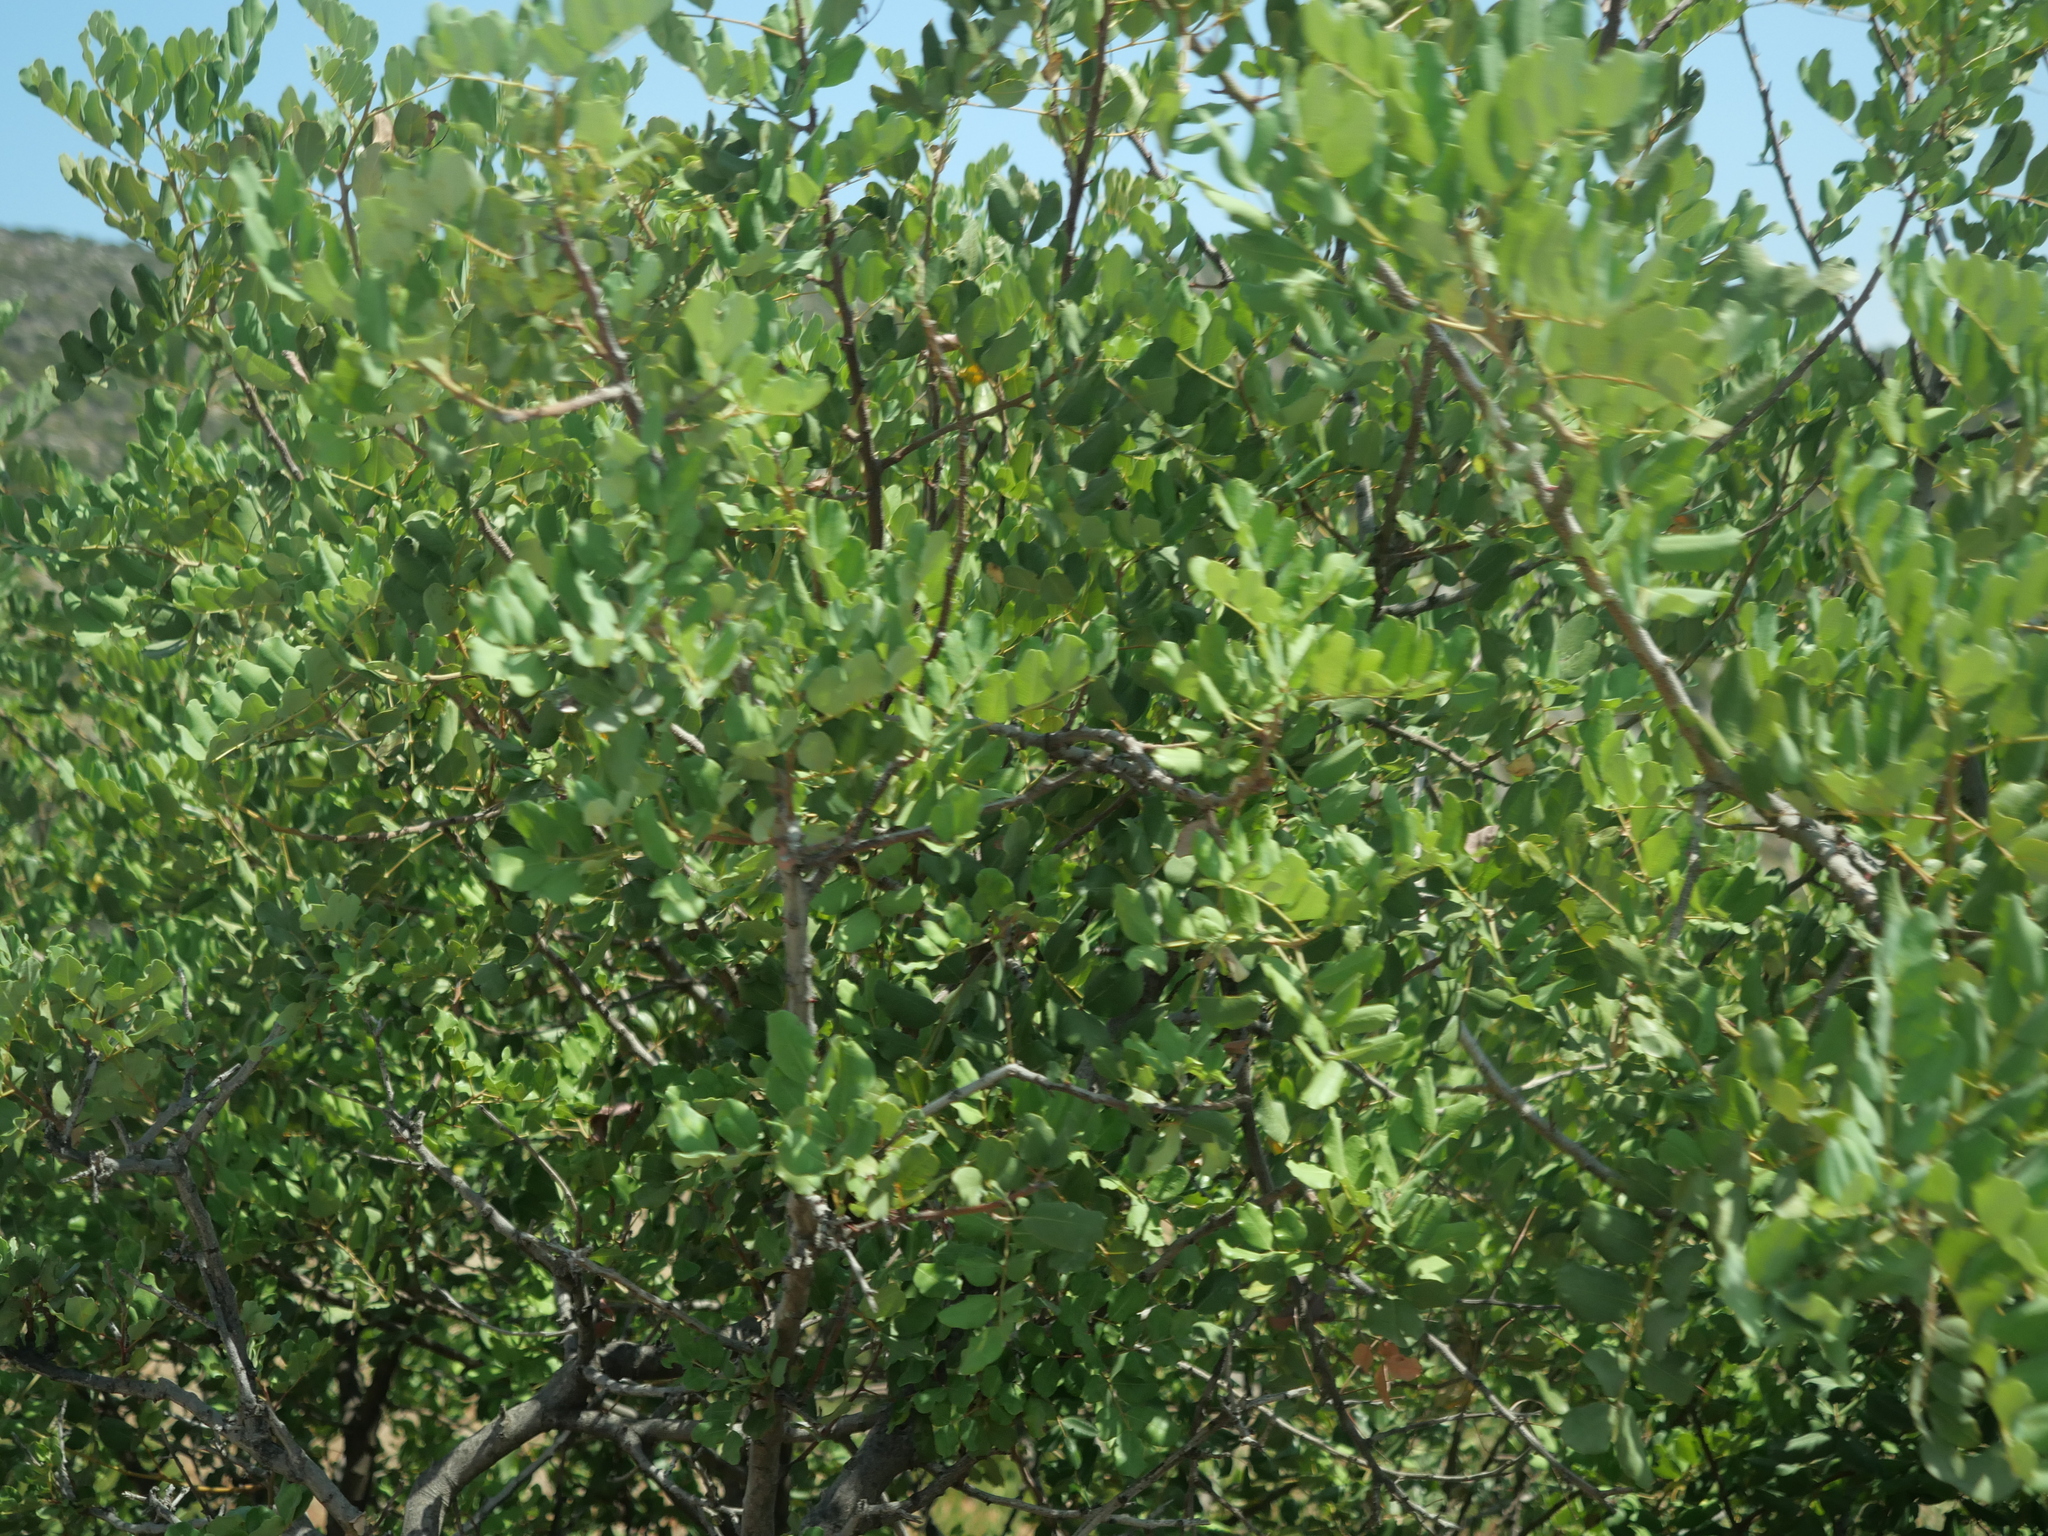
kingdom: Plantae
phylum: Tracheophyta
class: Magnoliopsida
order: Fabales
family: Fabaceae
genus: Ceratonia
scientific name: Ceratonia siliqua
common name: Carob
